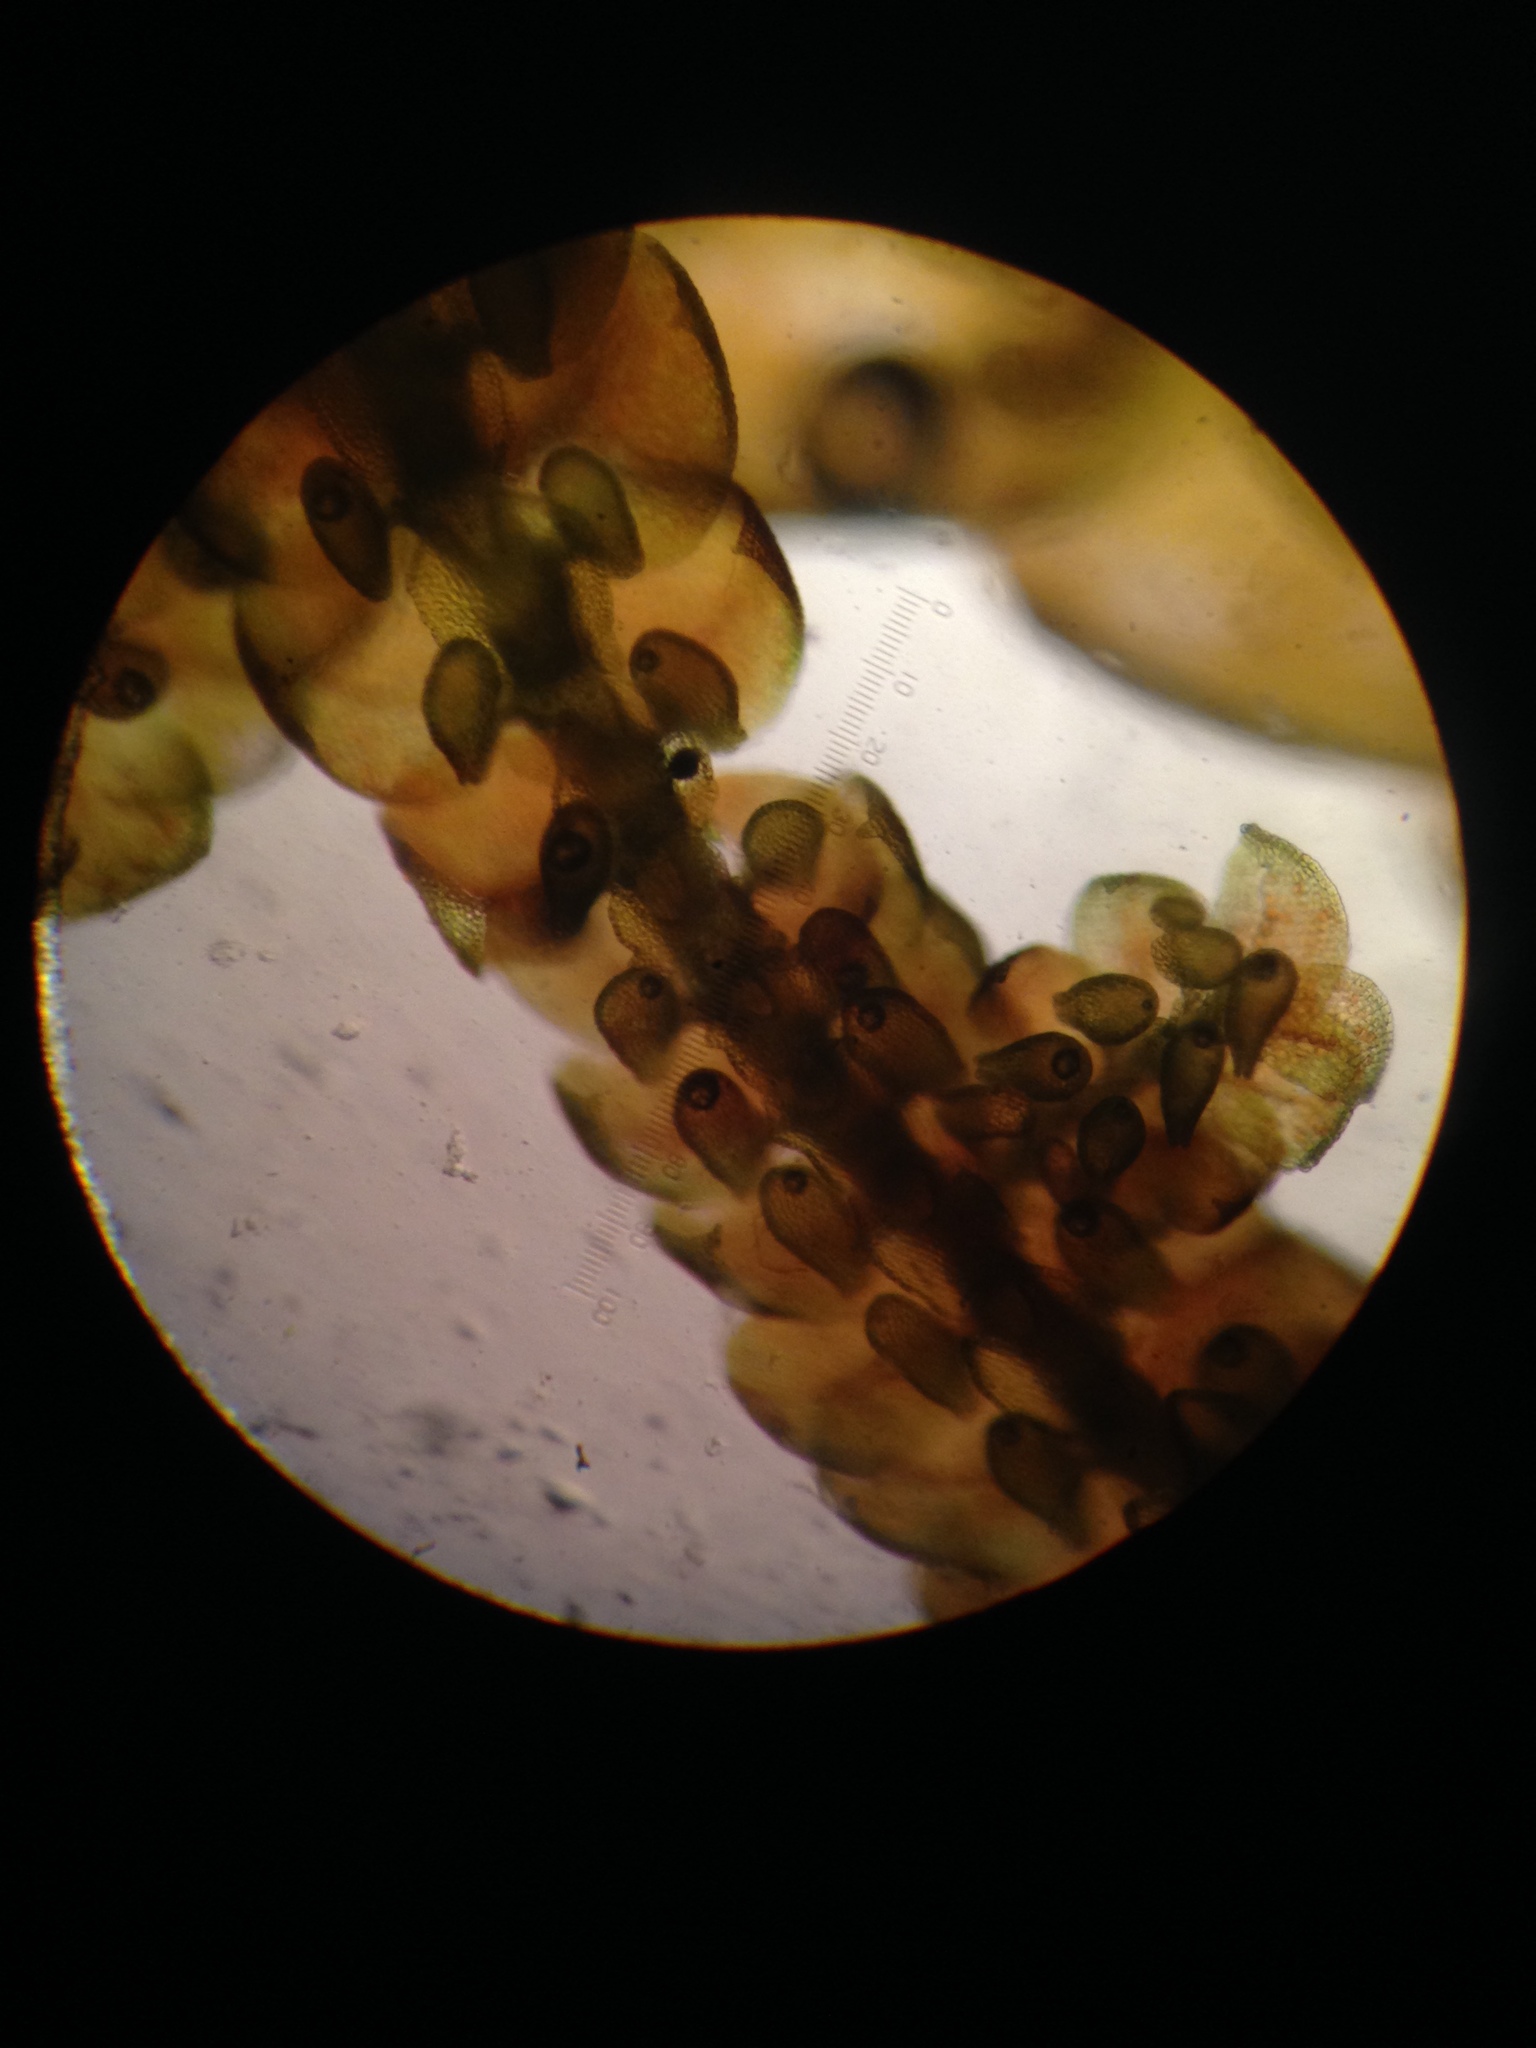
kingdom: Plantae
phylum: Marchantiophyta
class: Jungermanniopsida
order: Porellales
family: Frullaniaceae
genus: Frullania
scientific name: Frullania tamarisci
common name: Tamarisk scalewort
